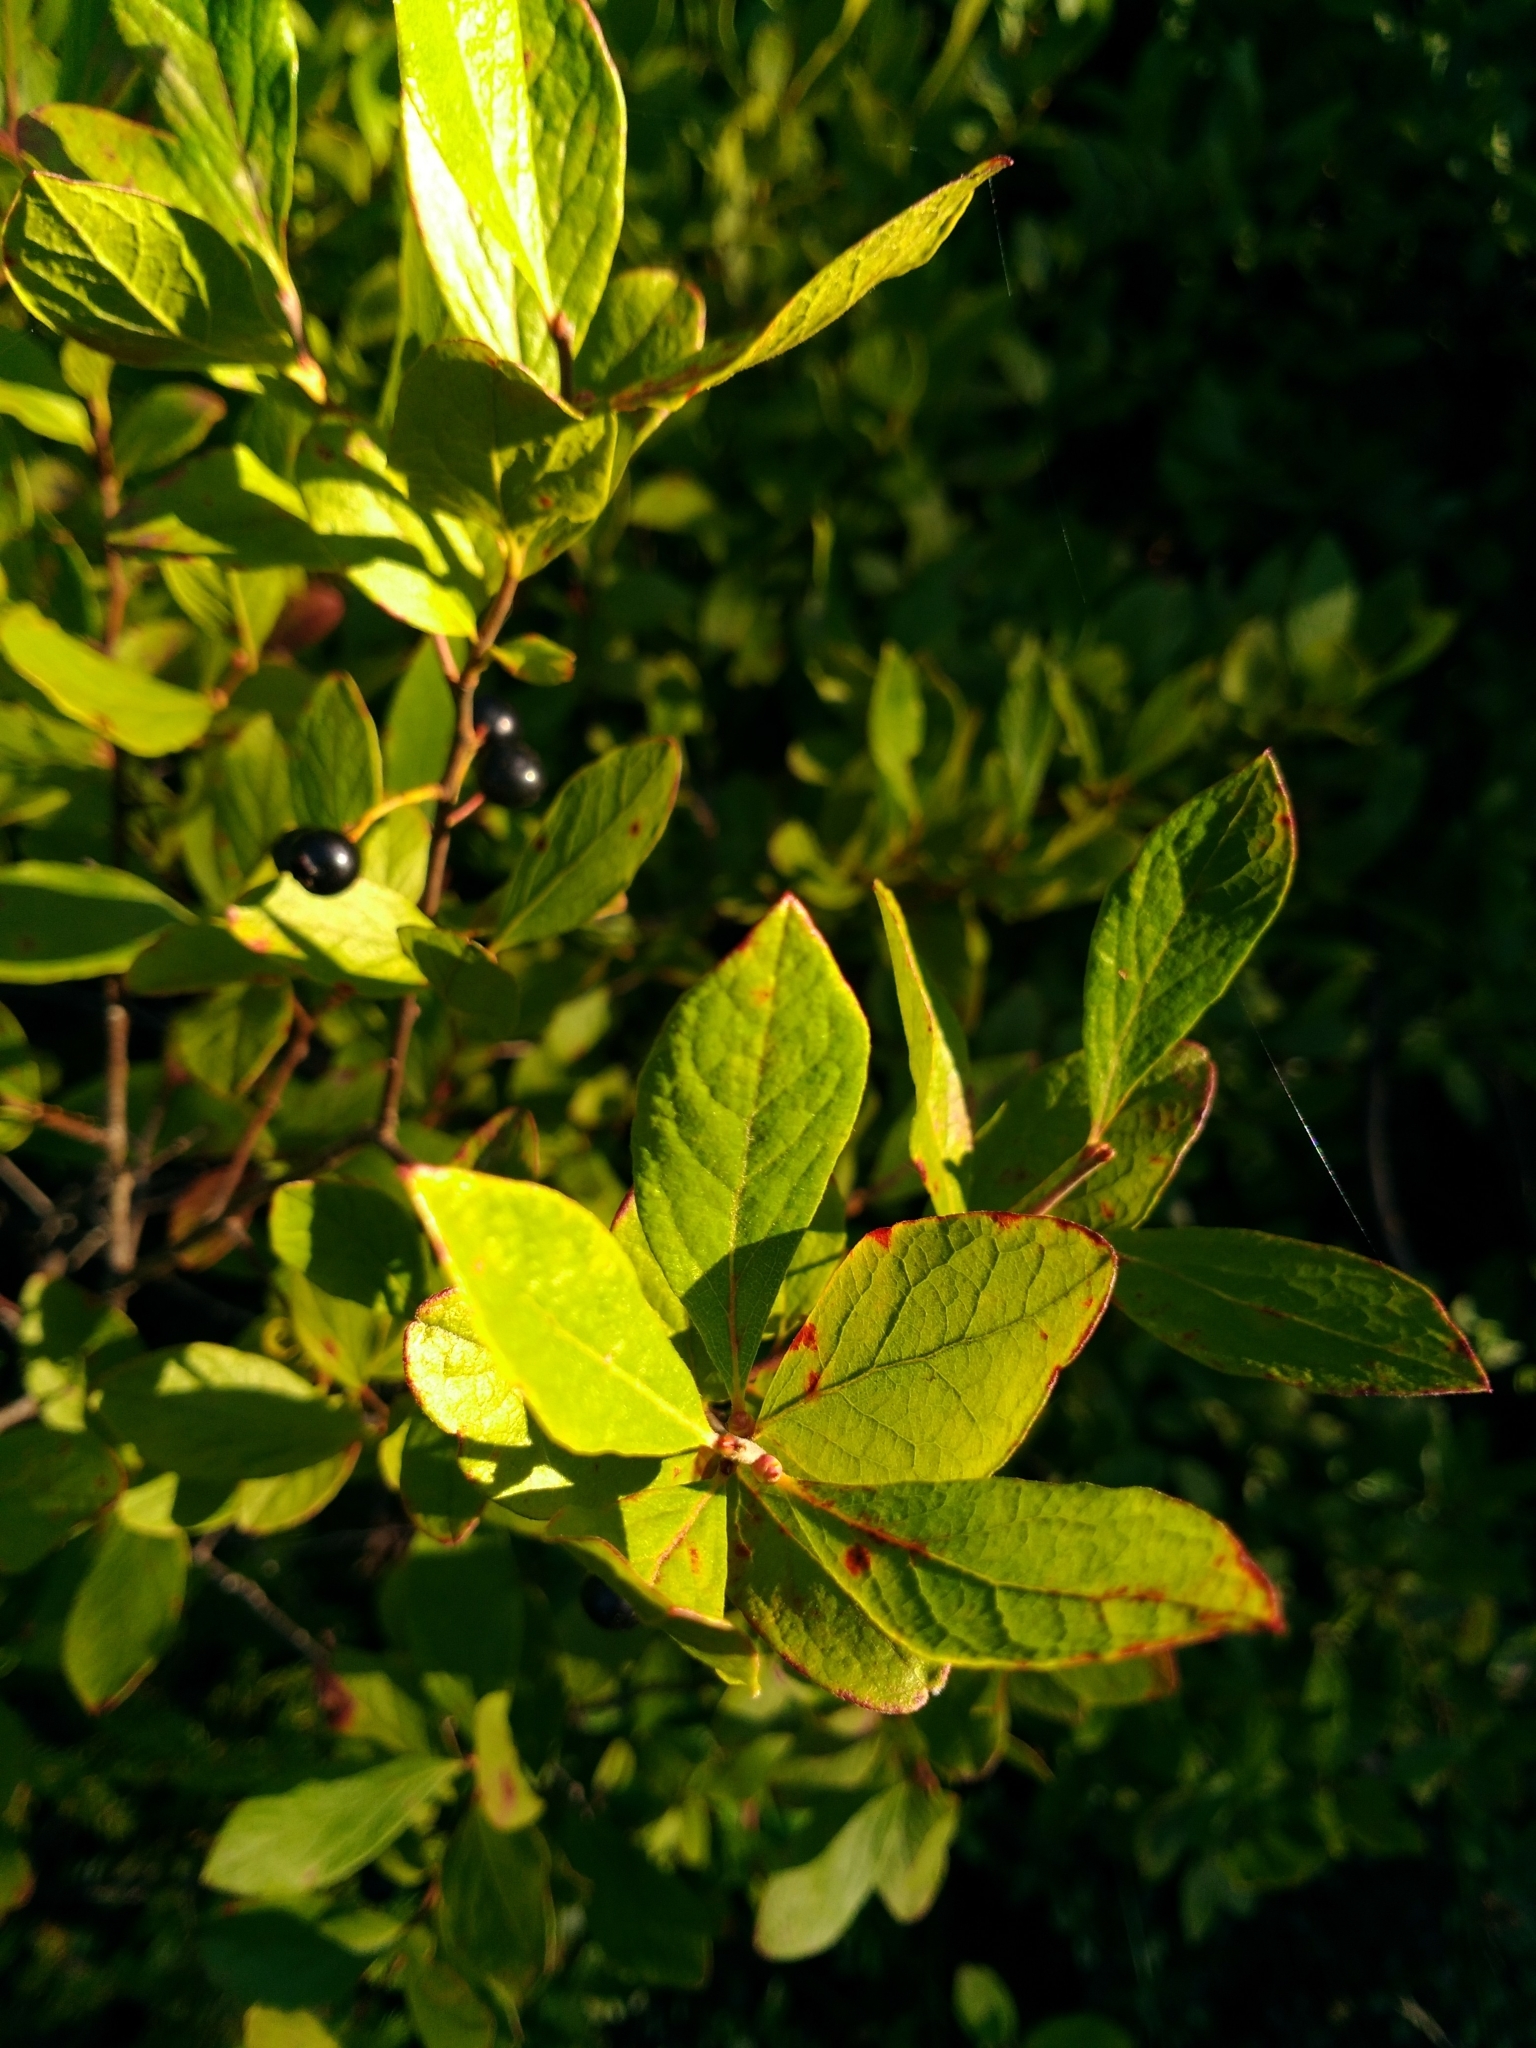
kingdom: Plantae
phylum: Tracheophyta
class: Magnoliopsida
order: Ericales
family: Ericaceae
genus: Gaylussacia
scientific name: Gaylussacia baccata
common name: Black huckleberry
